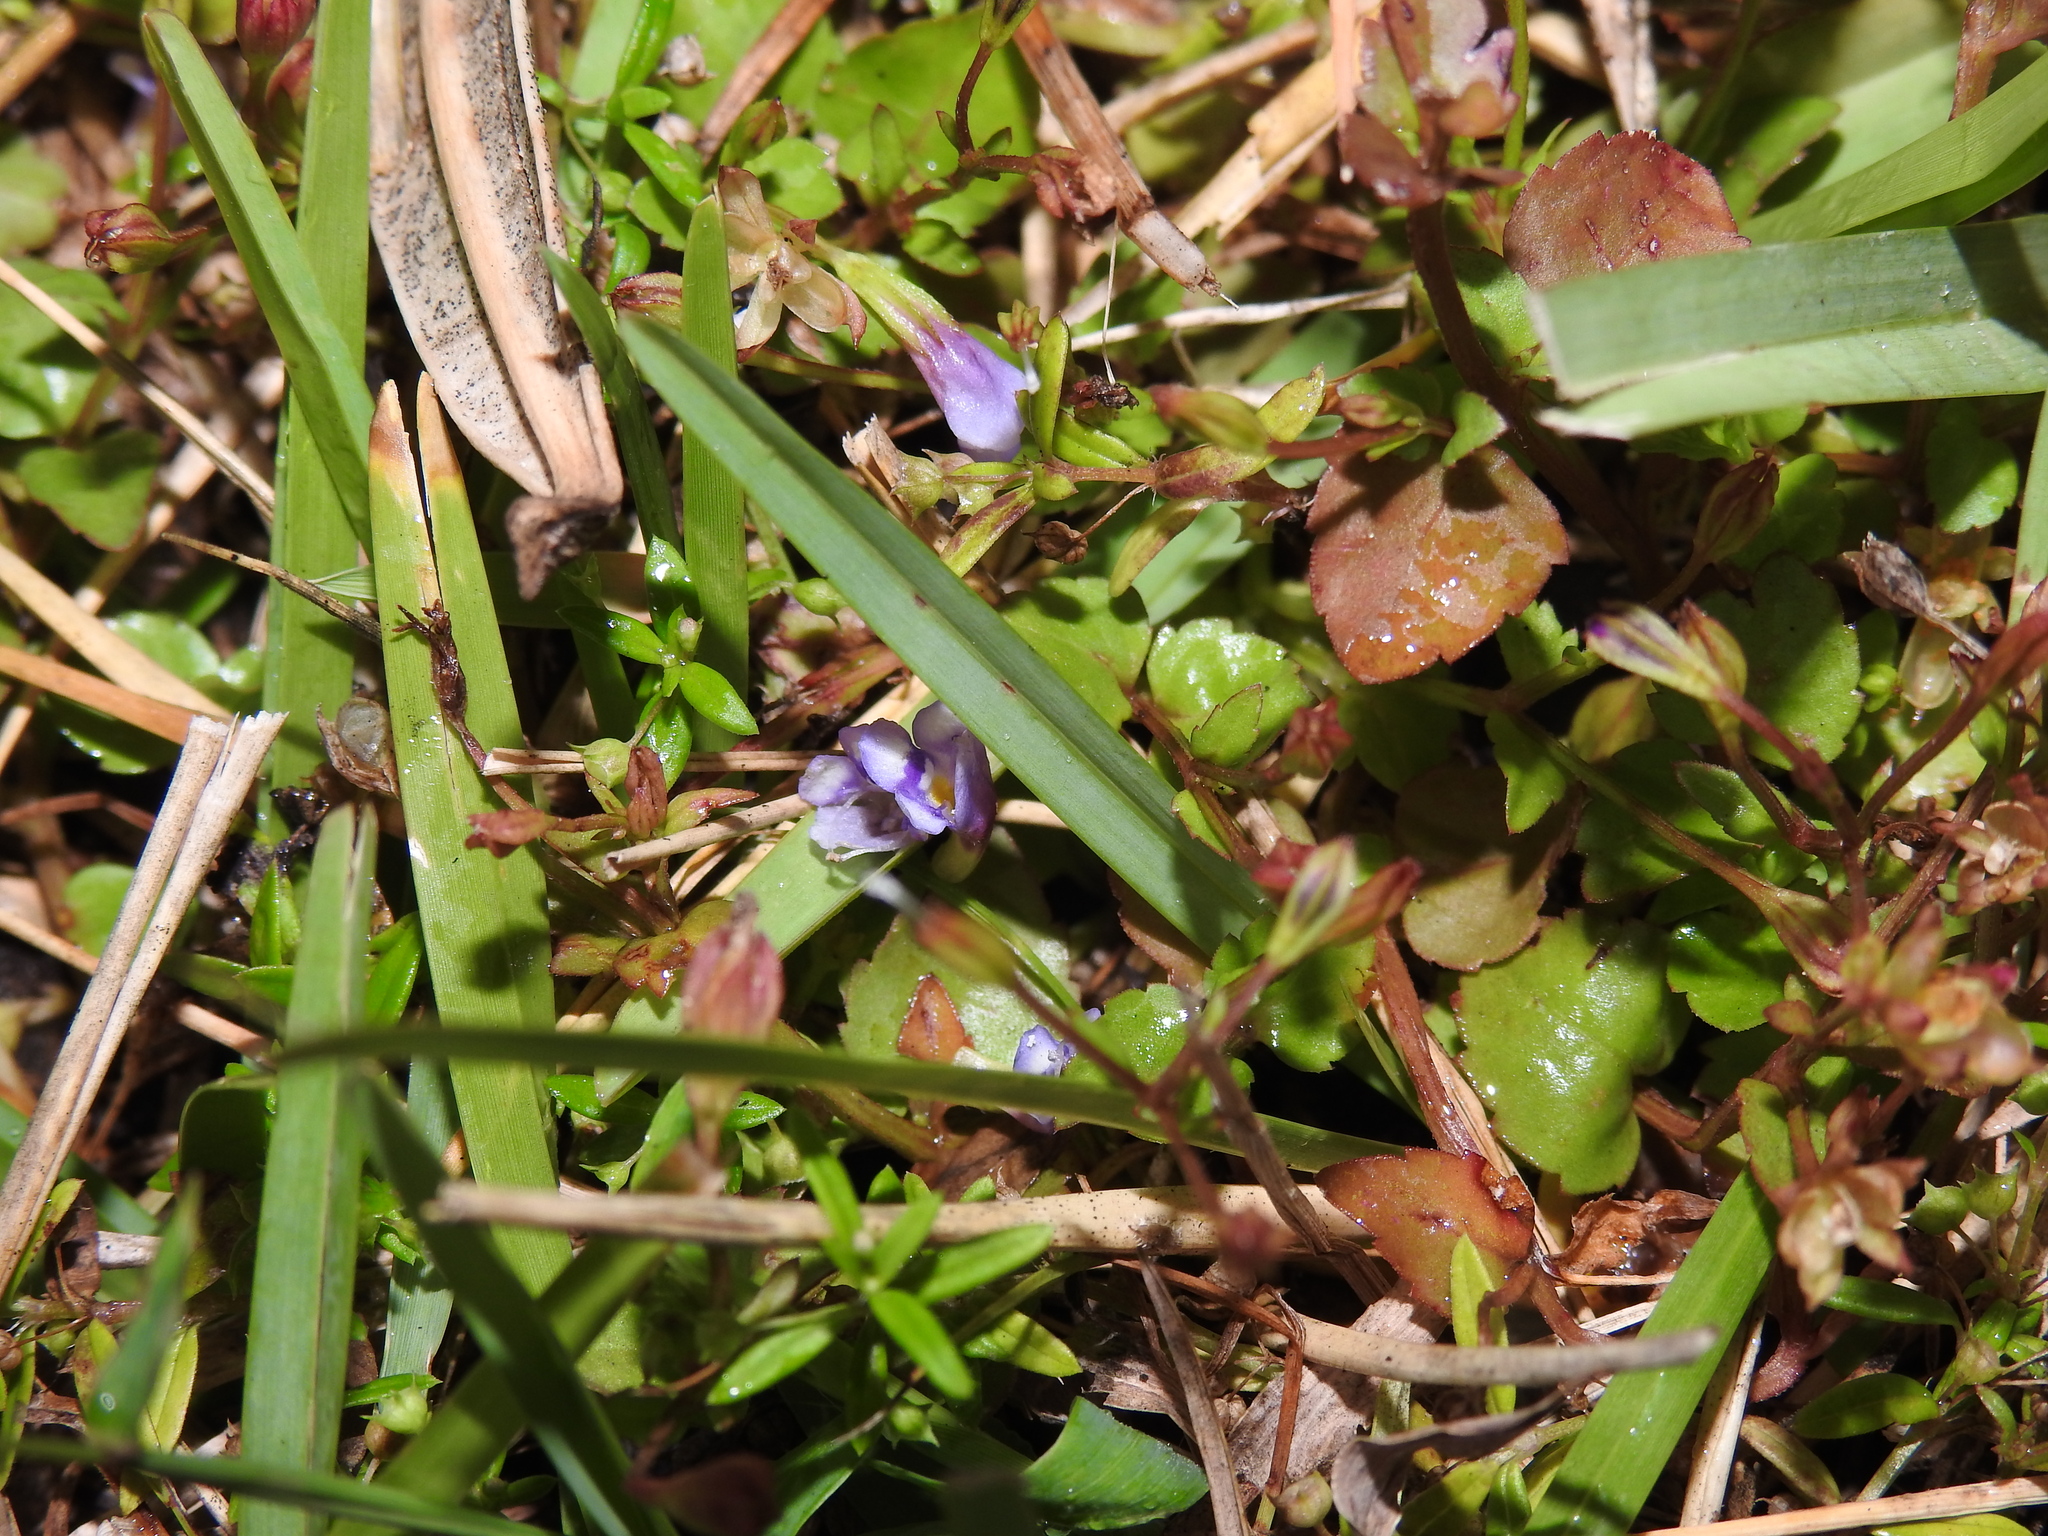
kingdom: Plantae
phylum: Tracheophyta
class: Magnoliopsida
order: Lamiales
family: Linderniaceae
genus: Torenia
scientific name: Torenia crustacea
